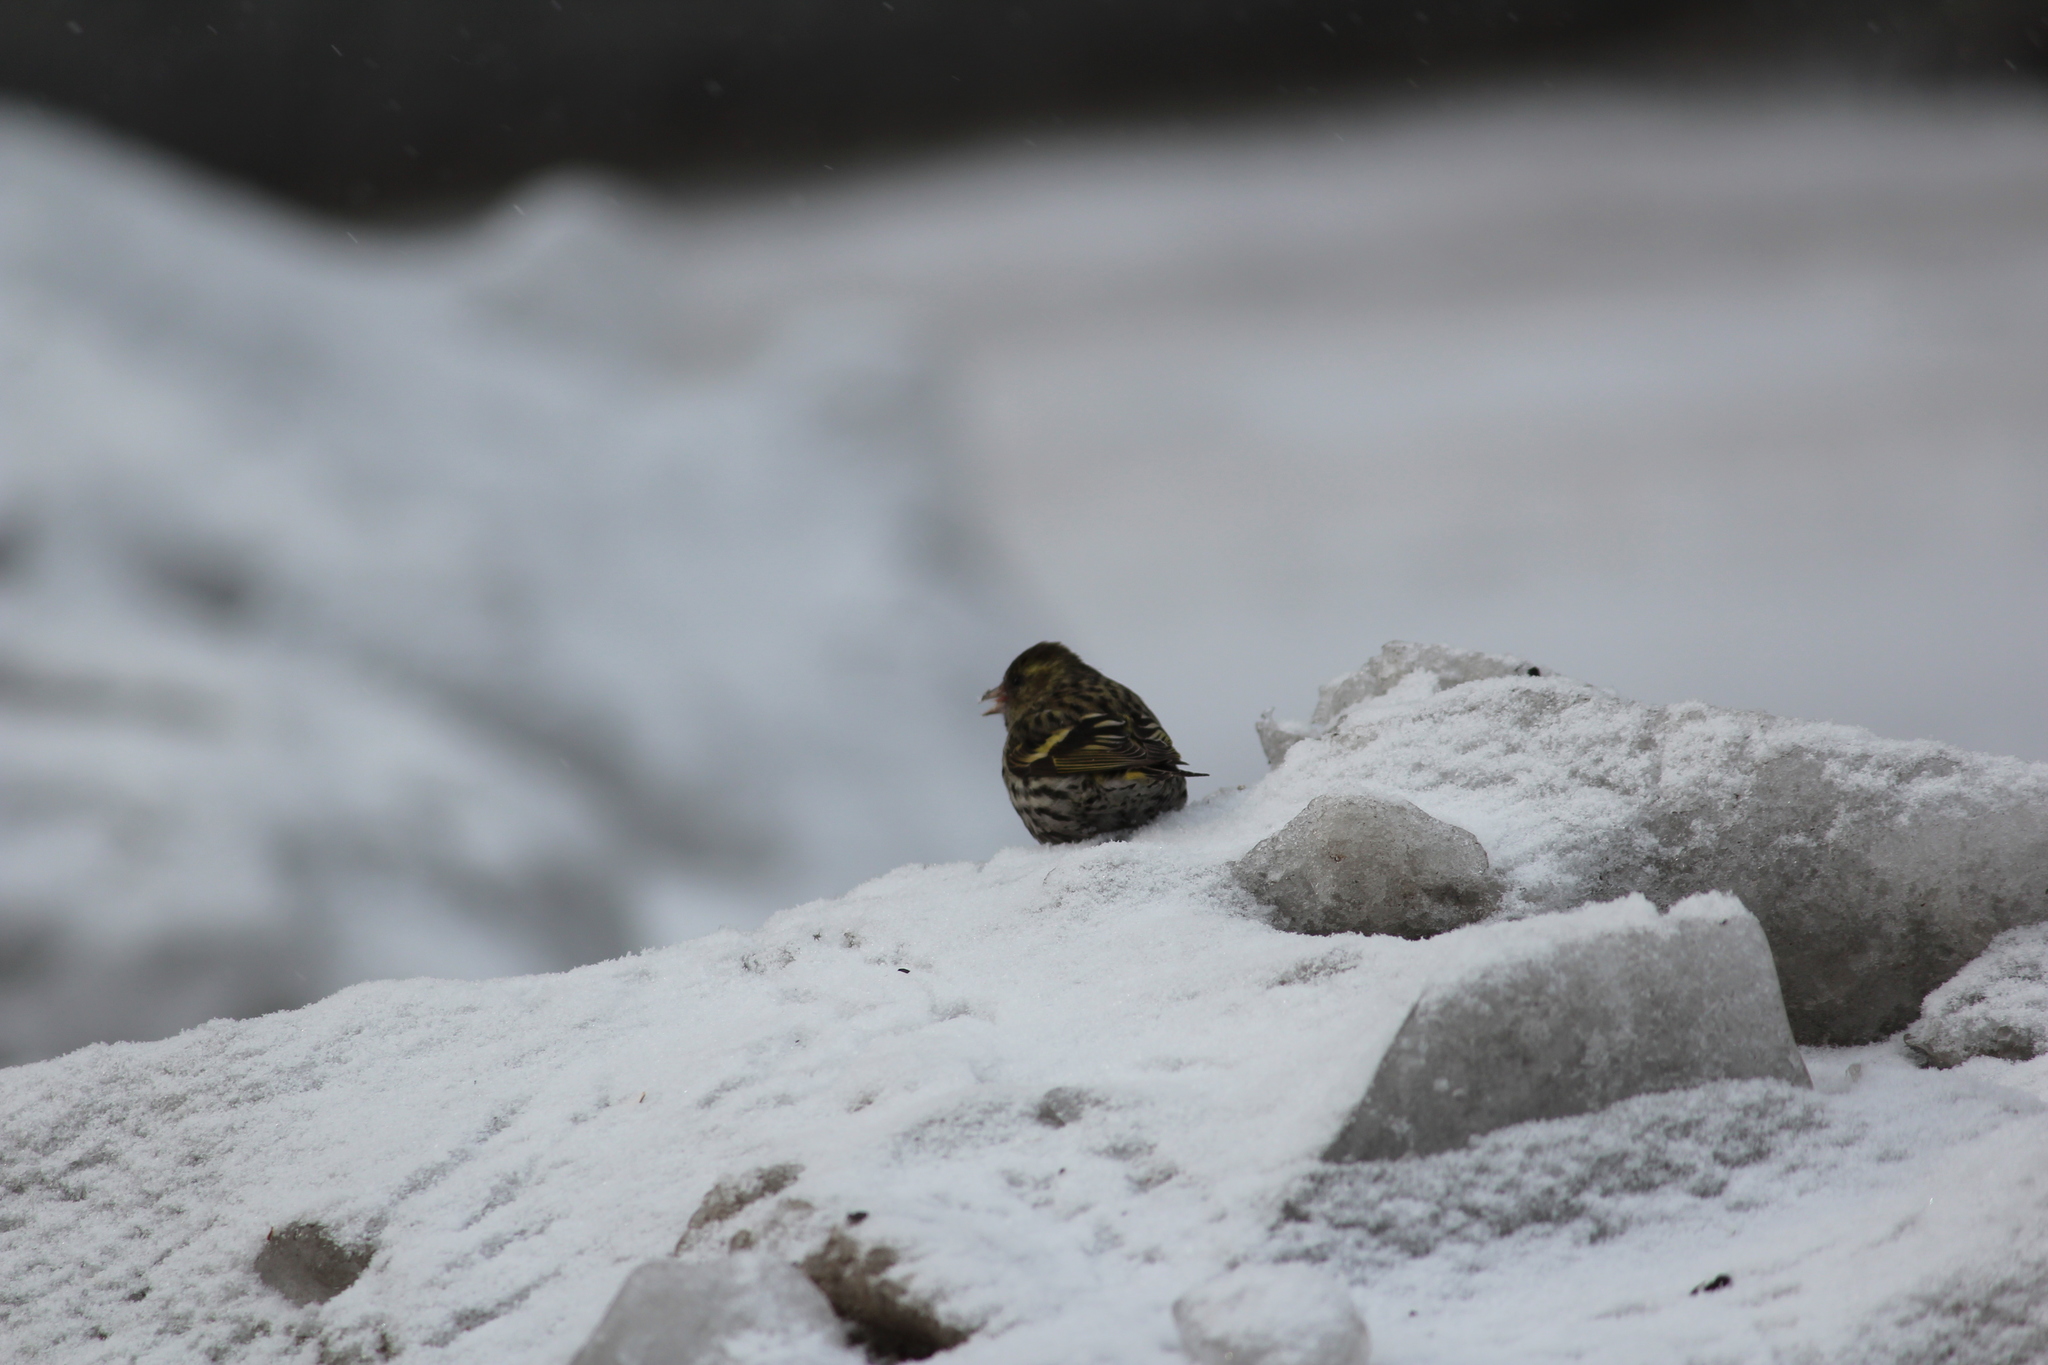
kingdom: Animalia
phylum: Chordata
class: Aves
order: Passeriformes
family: Fringillidae
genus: Spinus
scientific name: Spinus spinus
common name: Eurasian siskin
